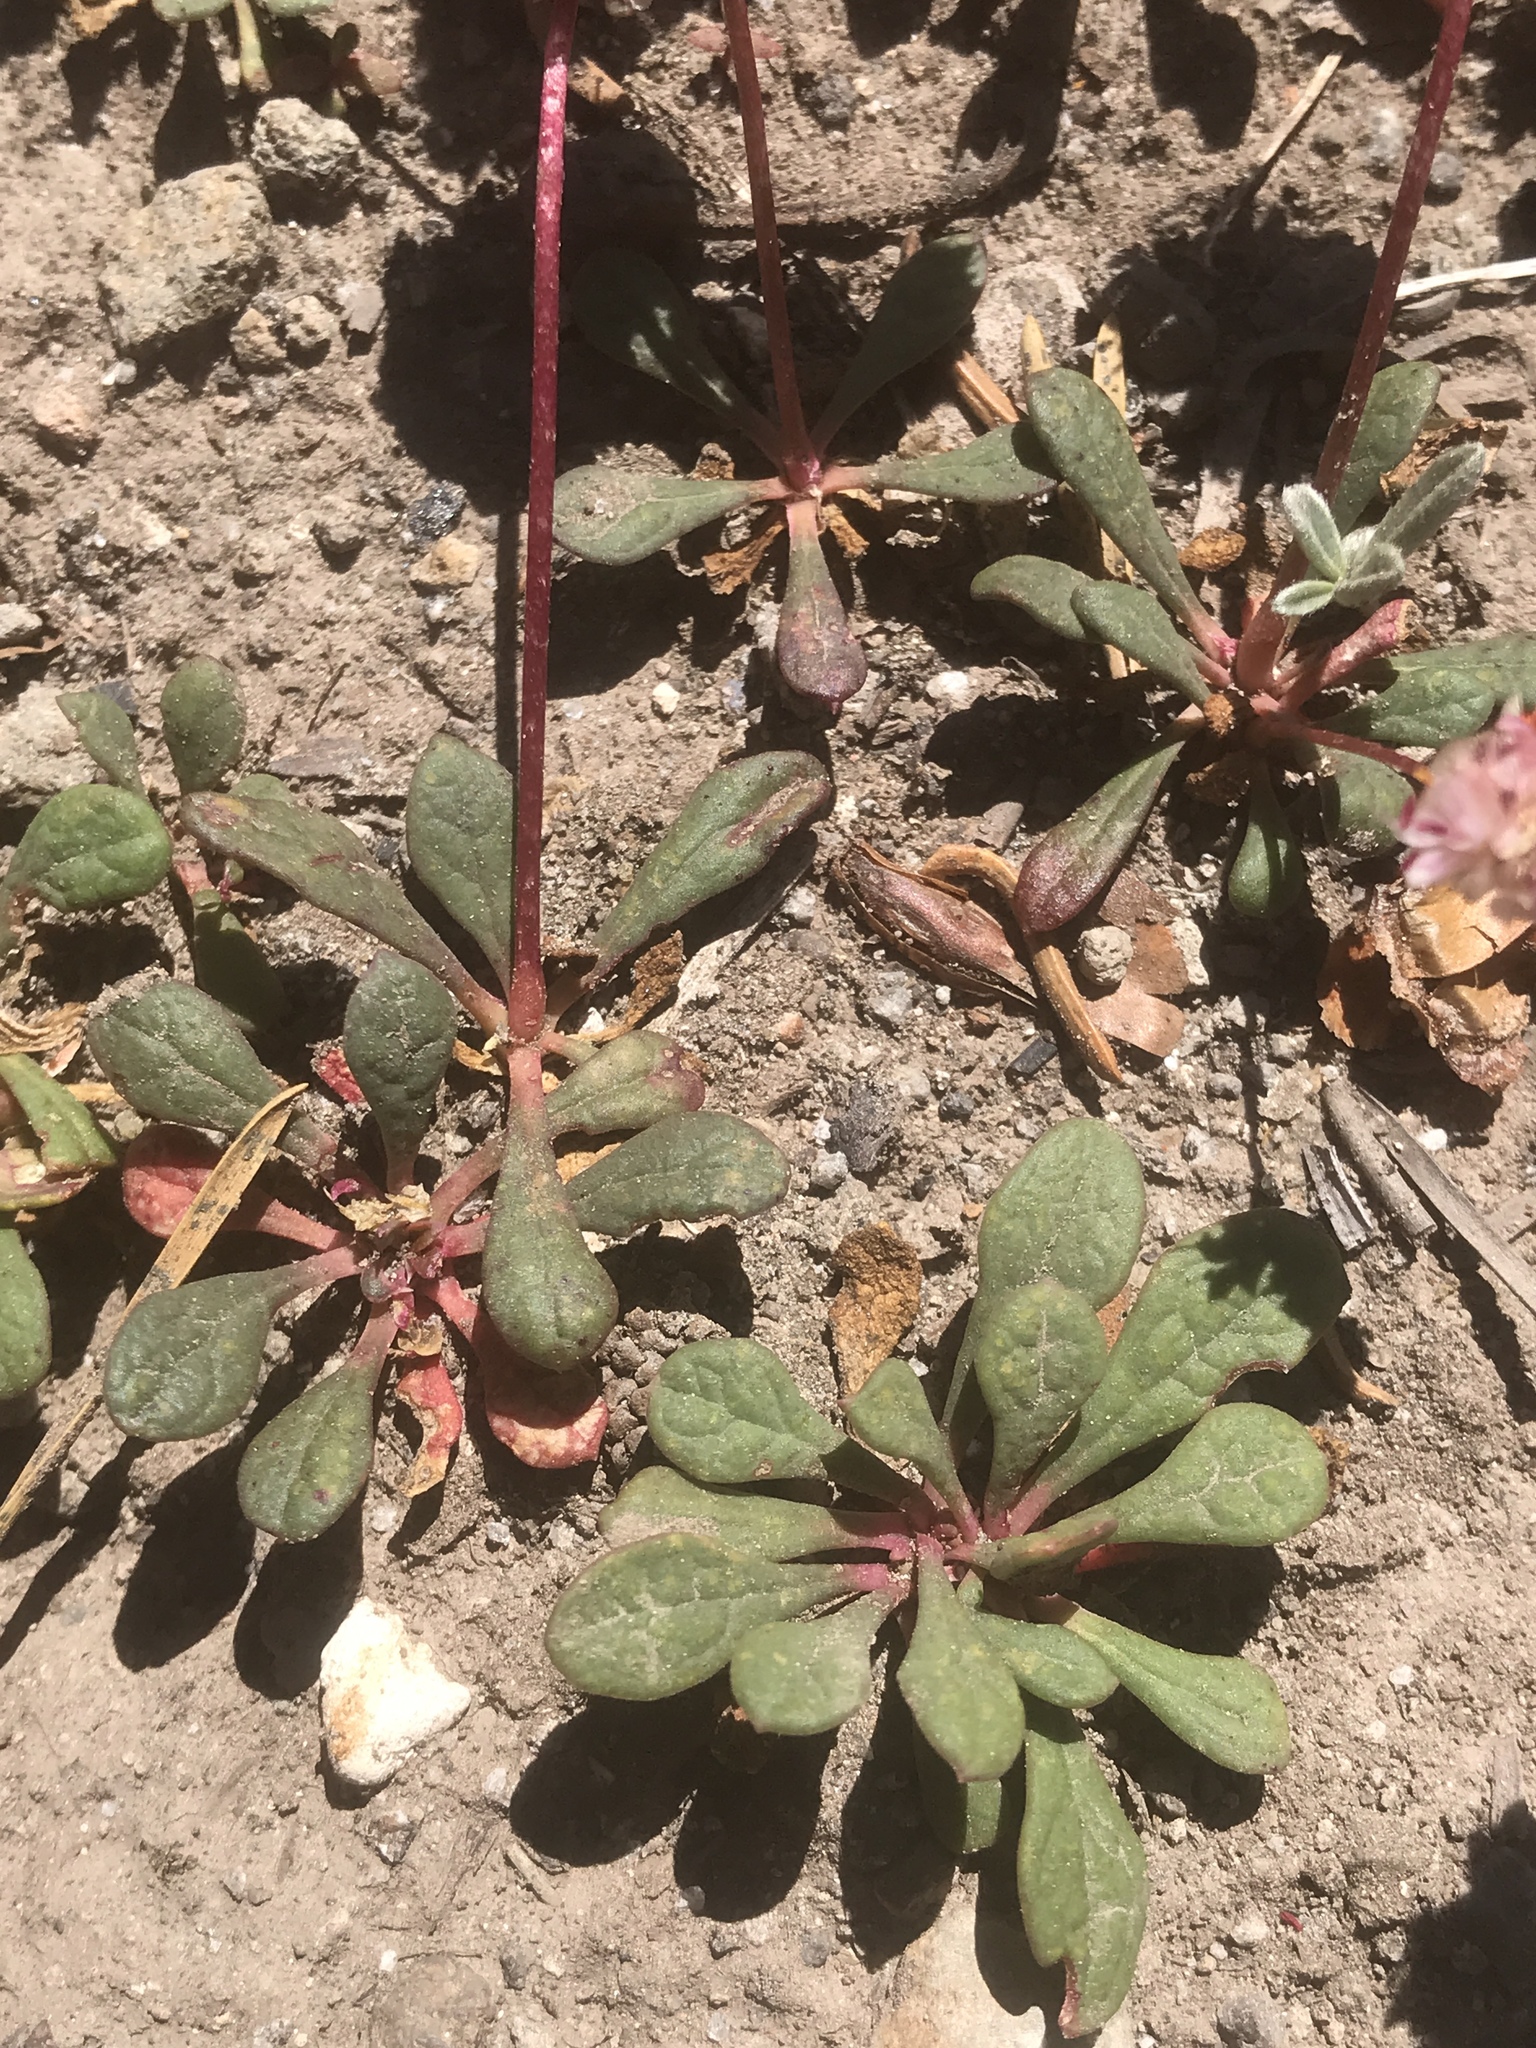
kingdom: Plantae
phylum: Tracheophyta
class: Magnoliopsida
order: Caryophyllales
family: Montiaceae
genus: Calyptridium
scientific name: Calyptridium umbellatum
